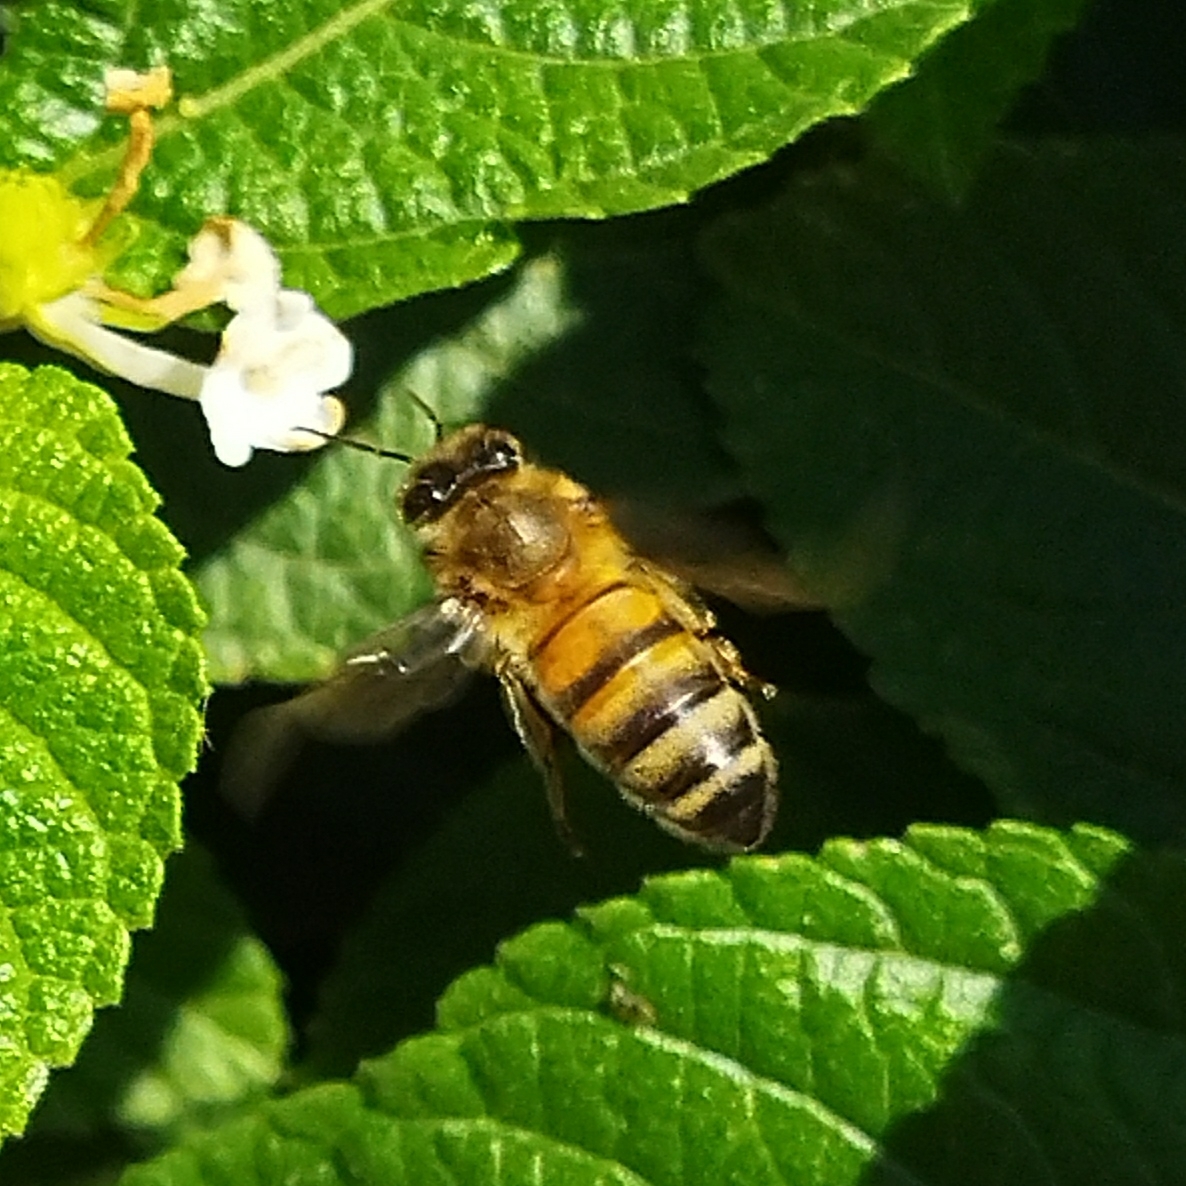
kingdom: Animalia
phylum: Arthropoda
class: Insecta
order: Hymenoptera
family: Apidae
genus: Apis
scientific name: Apis mellifera
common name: Honey bee
